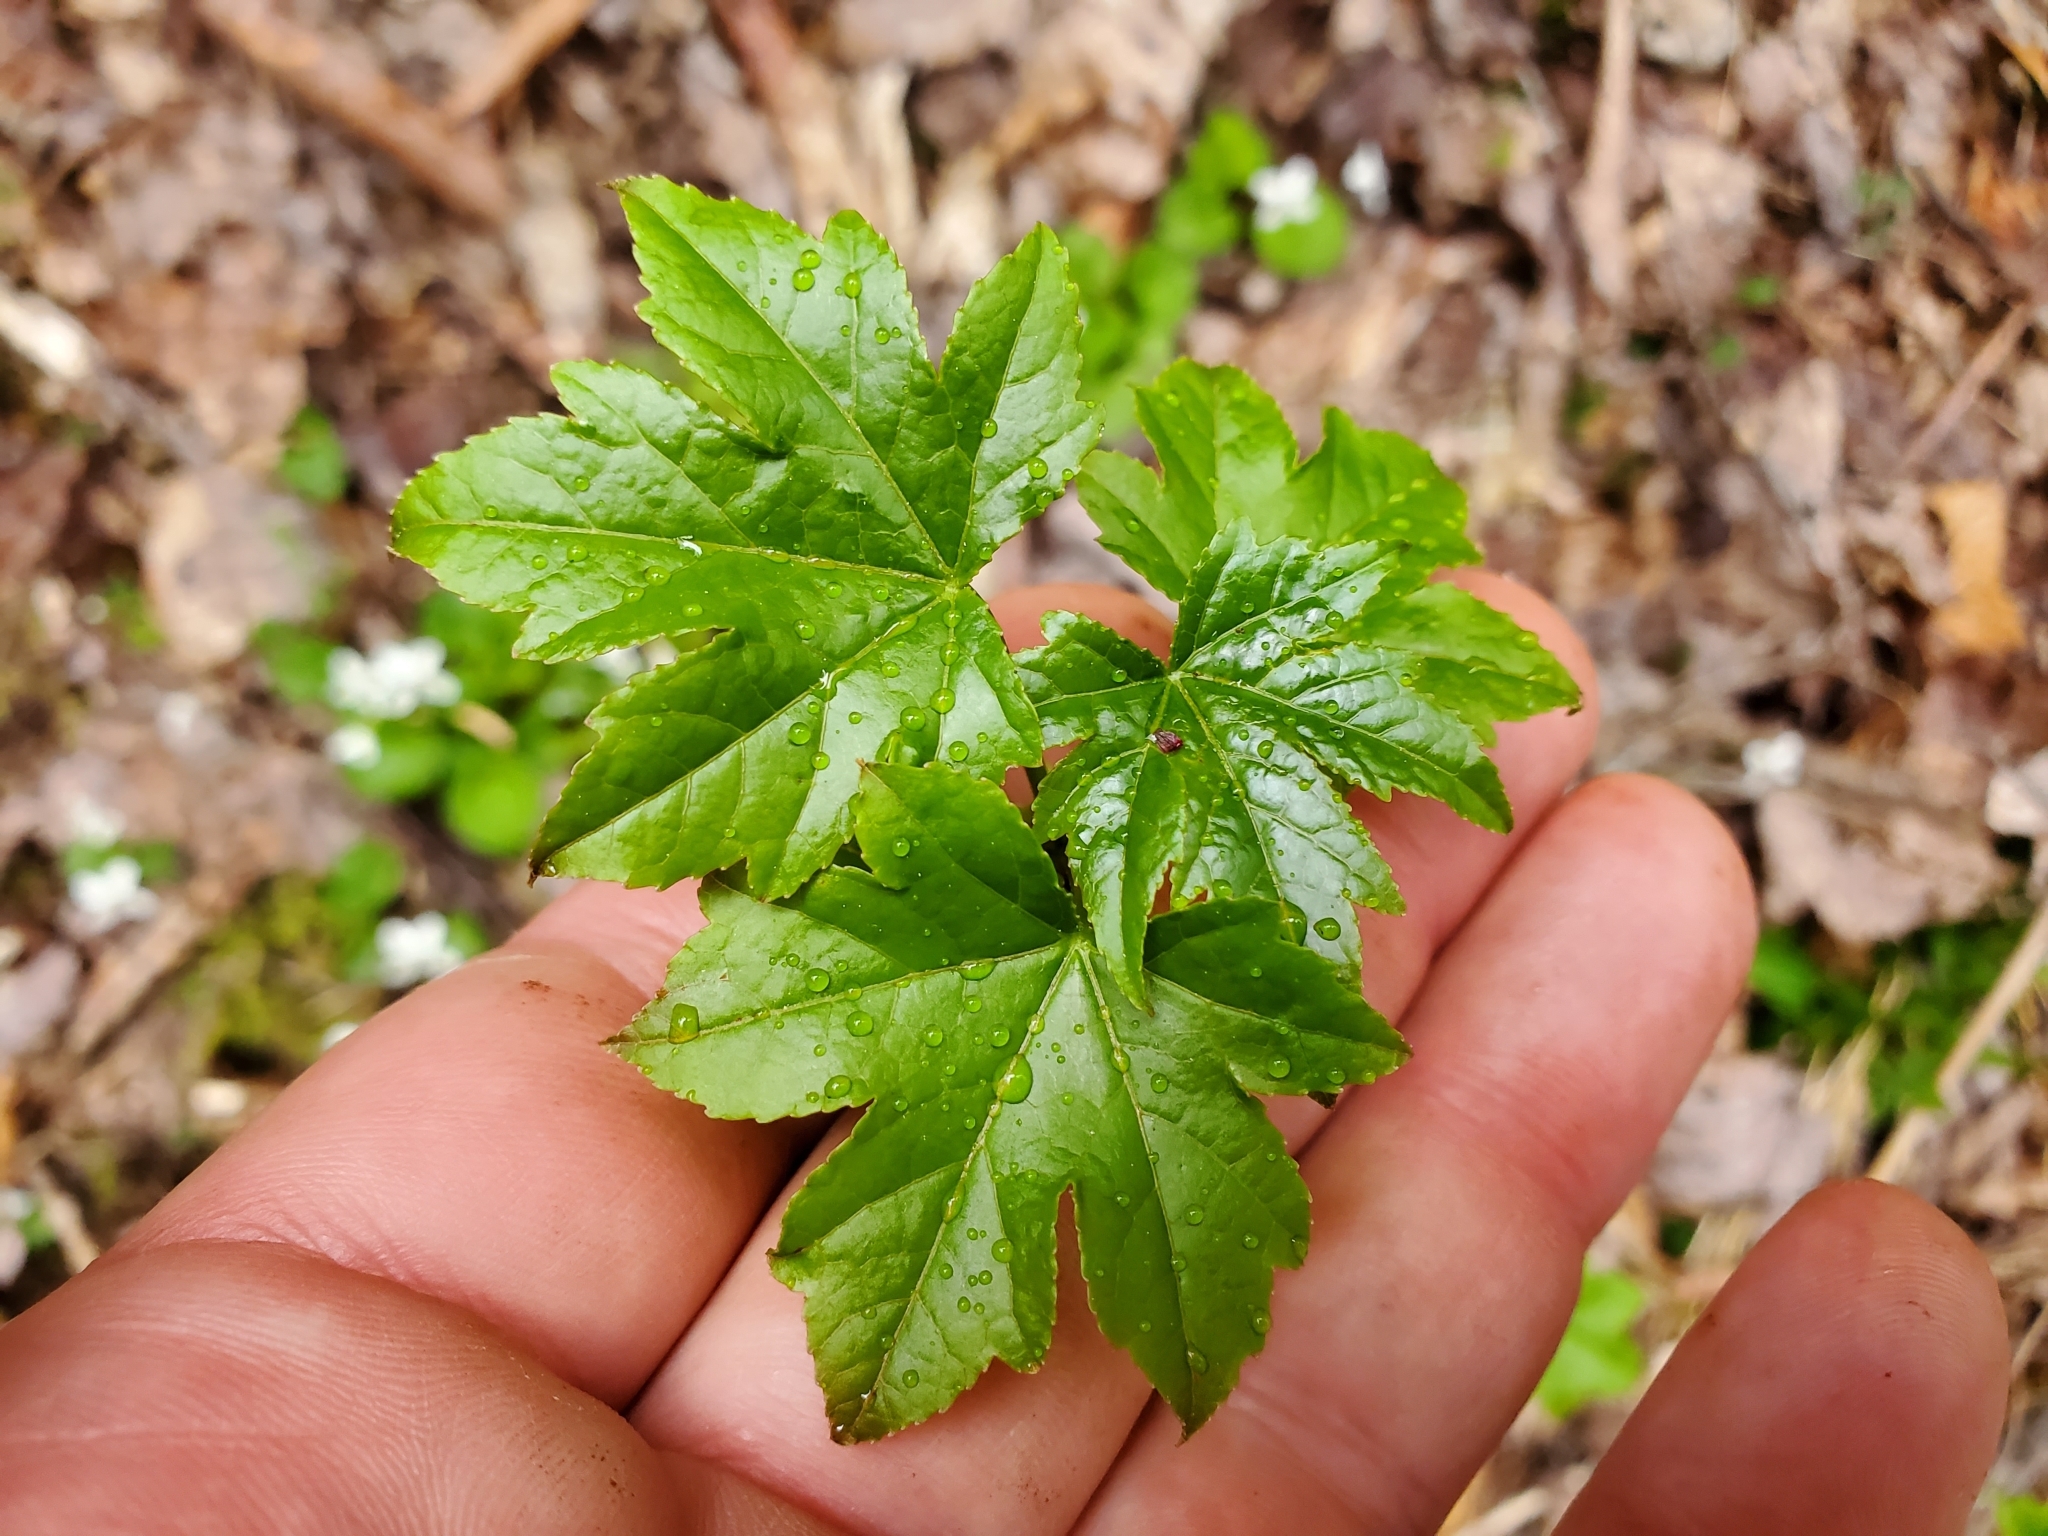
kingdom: Plantae
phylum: Tracheophyta
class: Magnoliopsida
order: Saxifragales
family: Altingiaceae
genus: Liquidambar
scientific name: Liquidambar styraciflua
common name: Sweet gum
